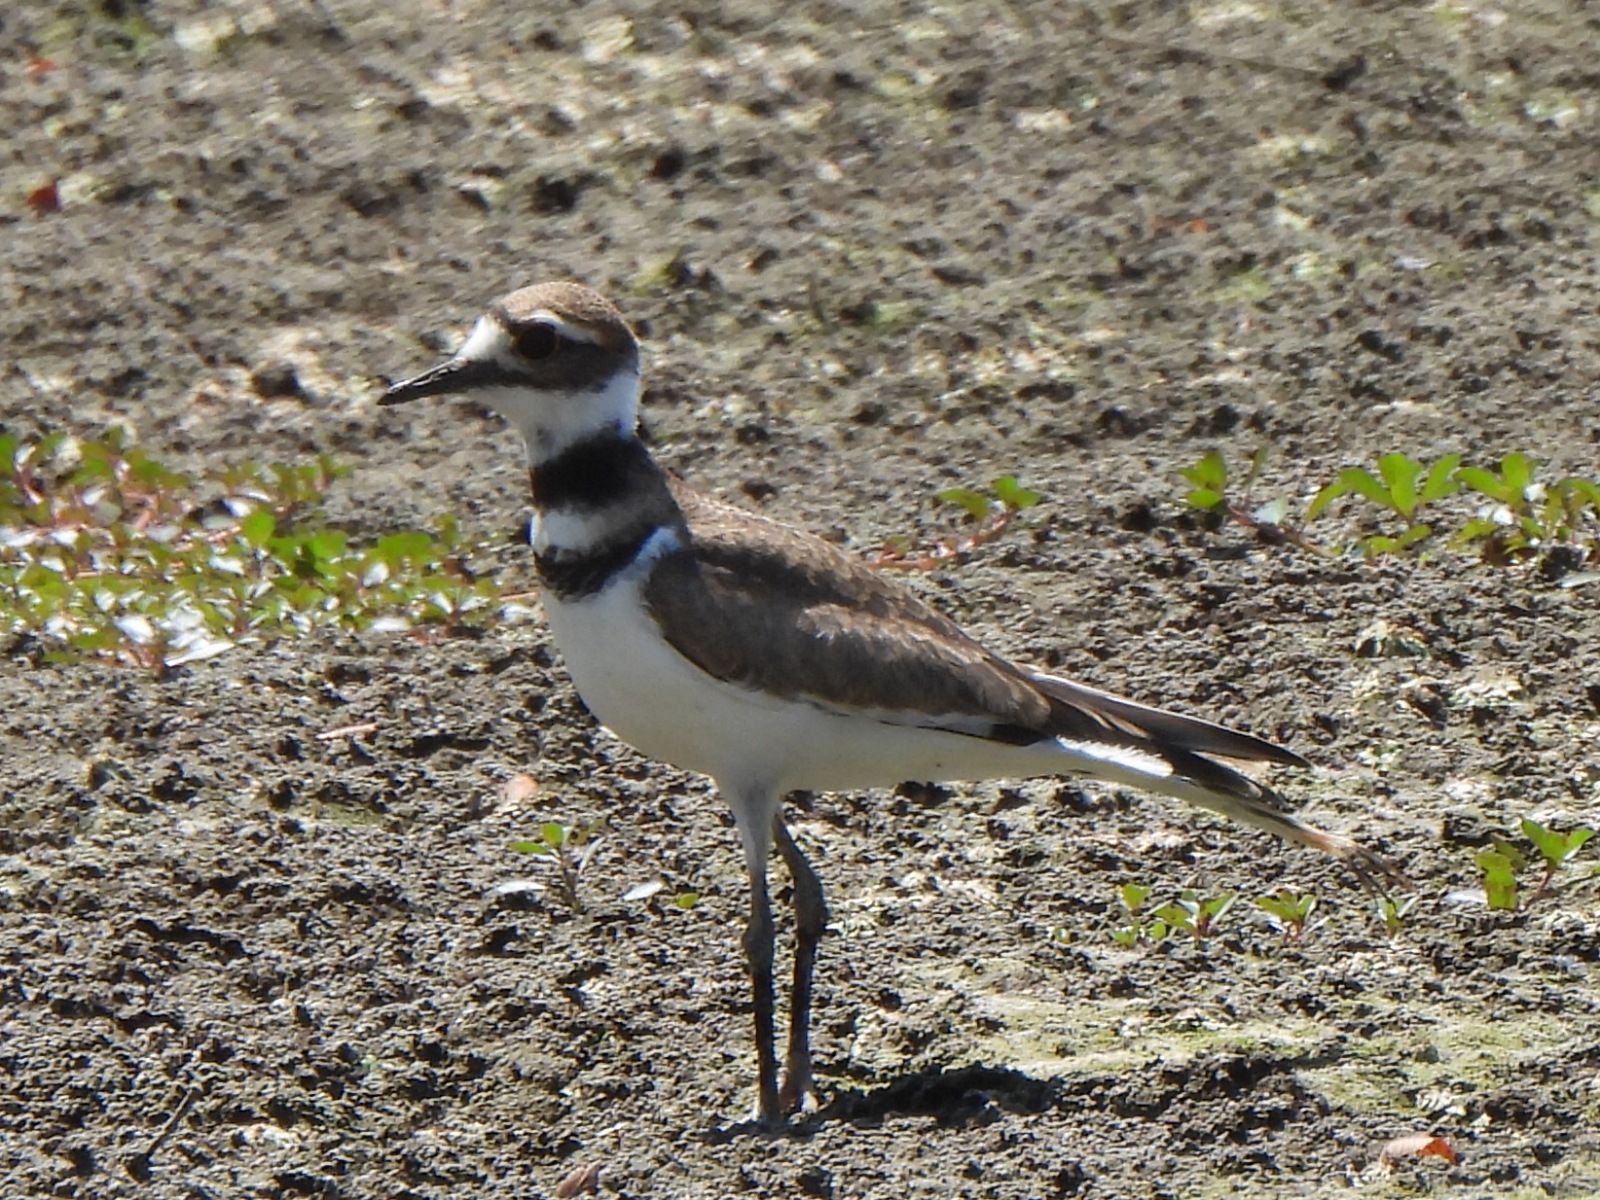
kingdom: Animalia
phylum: Chordata
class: Aves
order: Charadriiformes
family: Charadriidae
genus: Charadrius
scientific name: Charadrius vociferus
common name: Killdeer
